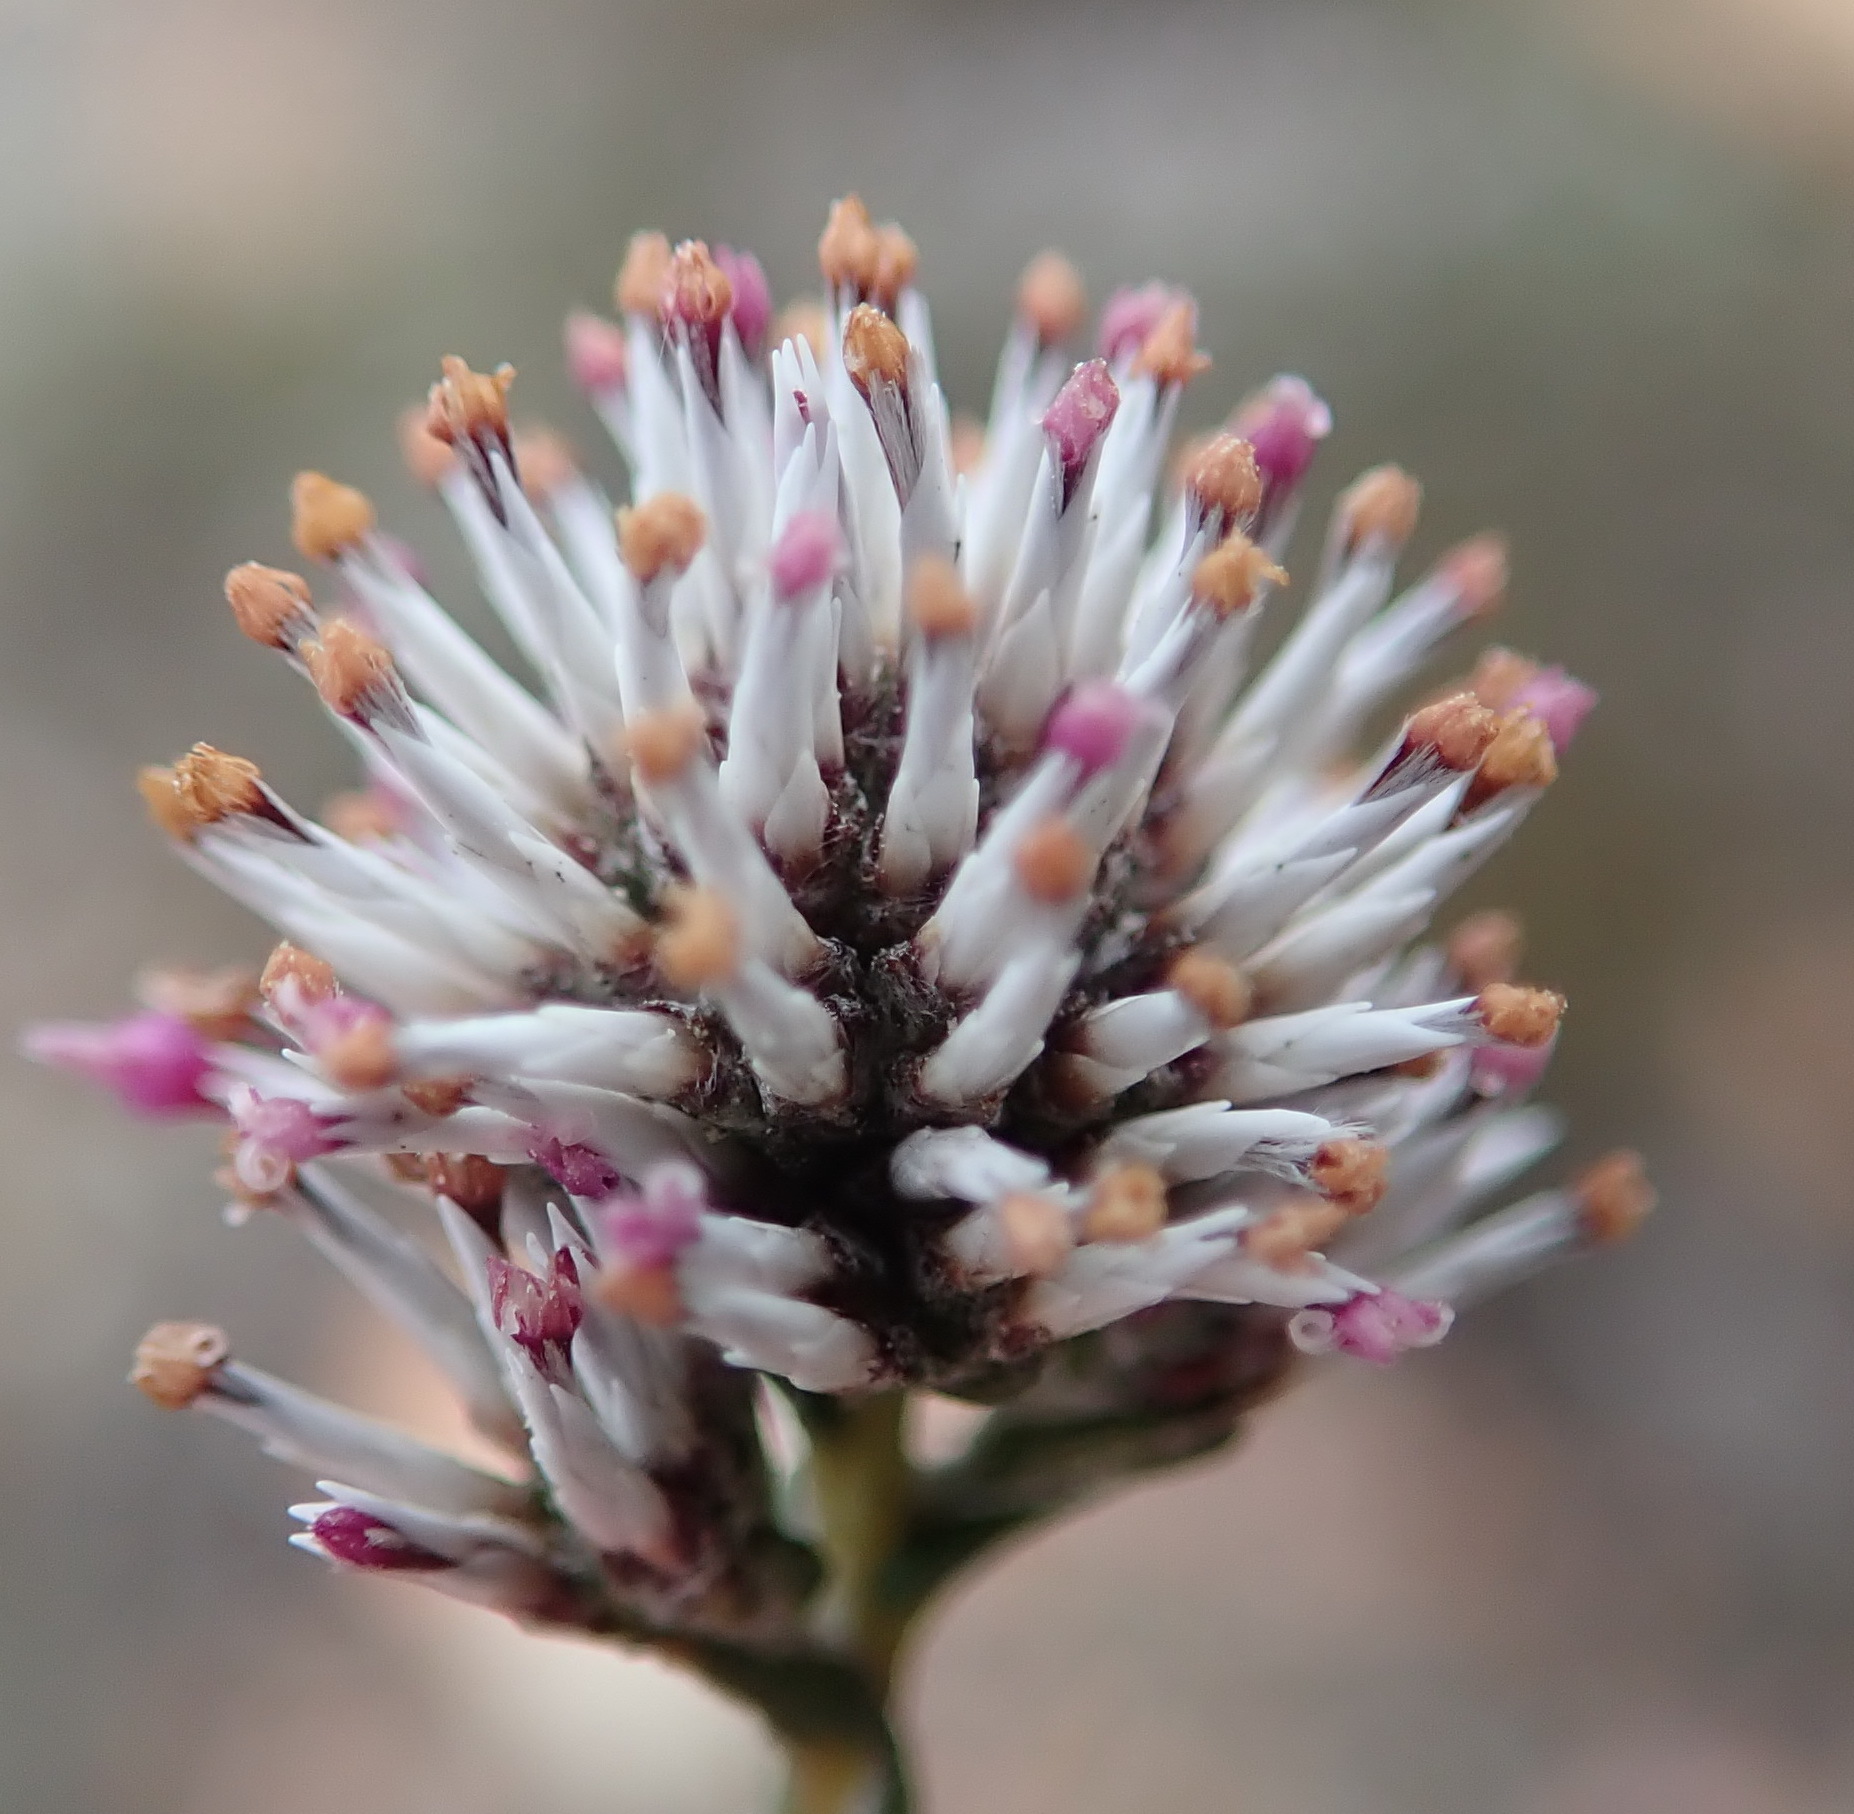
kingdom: Plantae
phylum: Tracheophyta
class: Magnoliopsida
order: Asterales
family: Asteraceae
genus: Stoebe
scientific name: Stoebe microphylla
